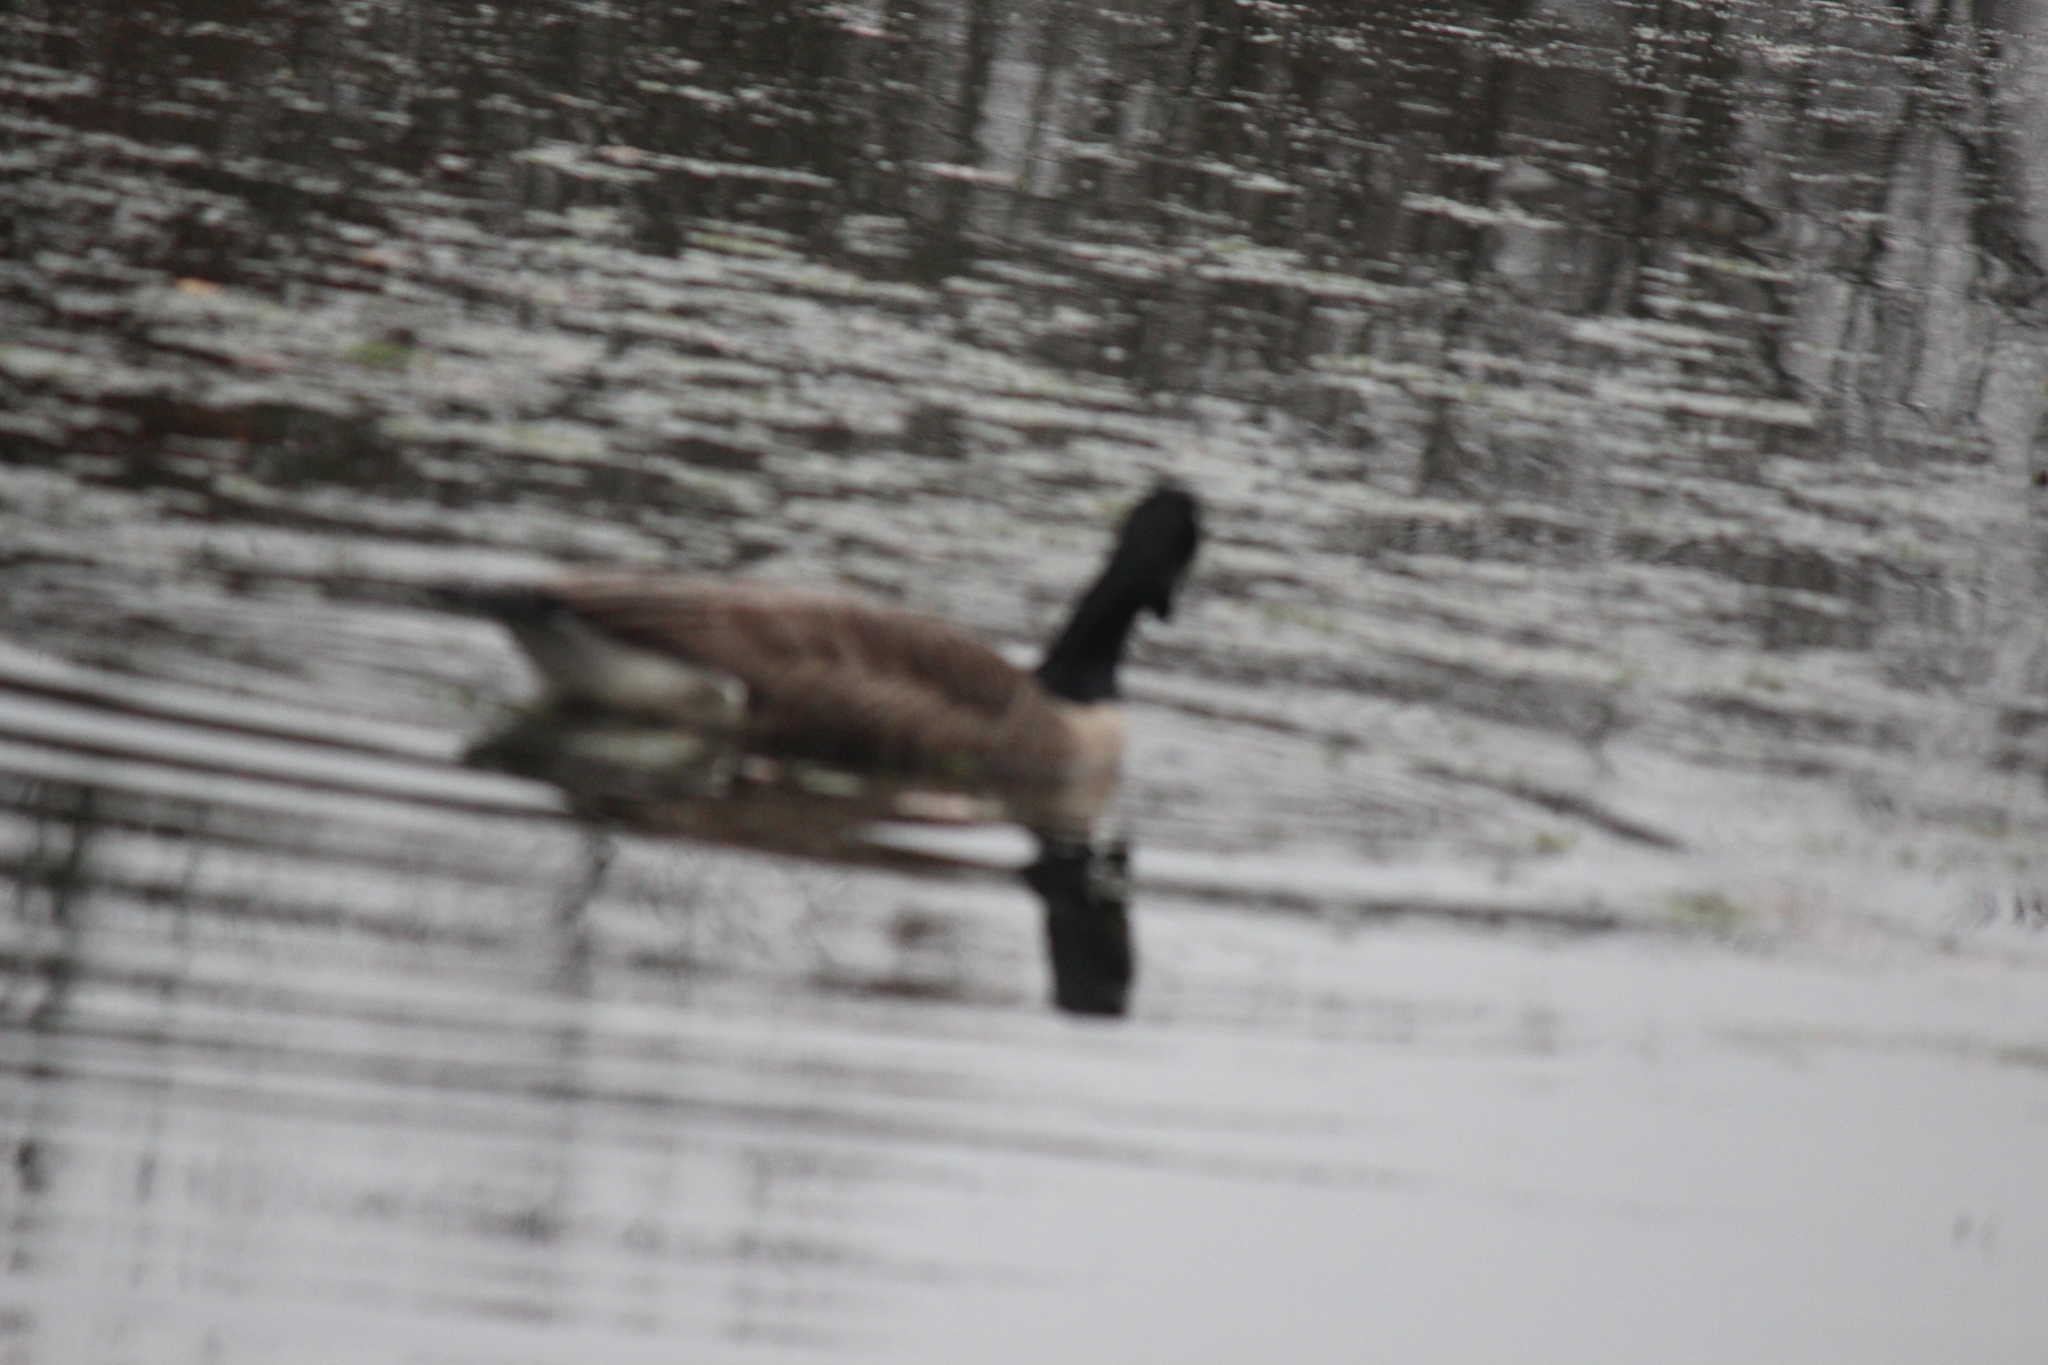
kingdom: Animalia
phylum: Chordata
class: Aves
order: Anseriformes
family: Anatidae
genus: Branta
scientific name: Branta canadensis
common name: Canada goose
